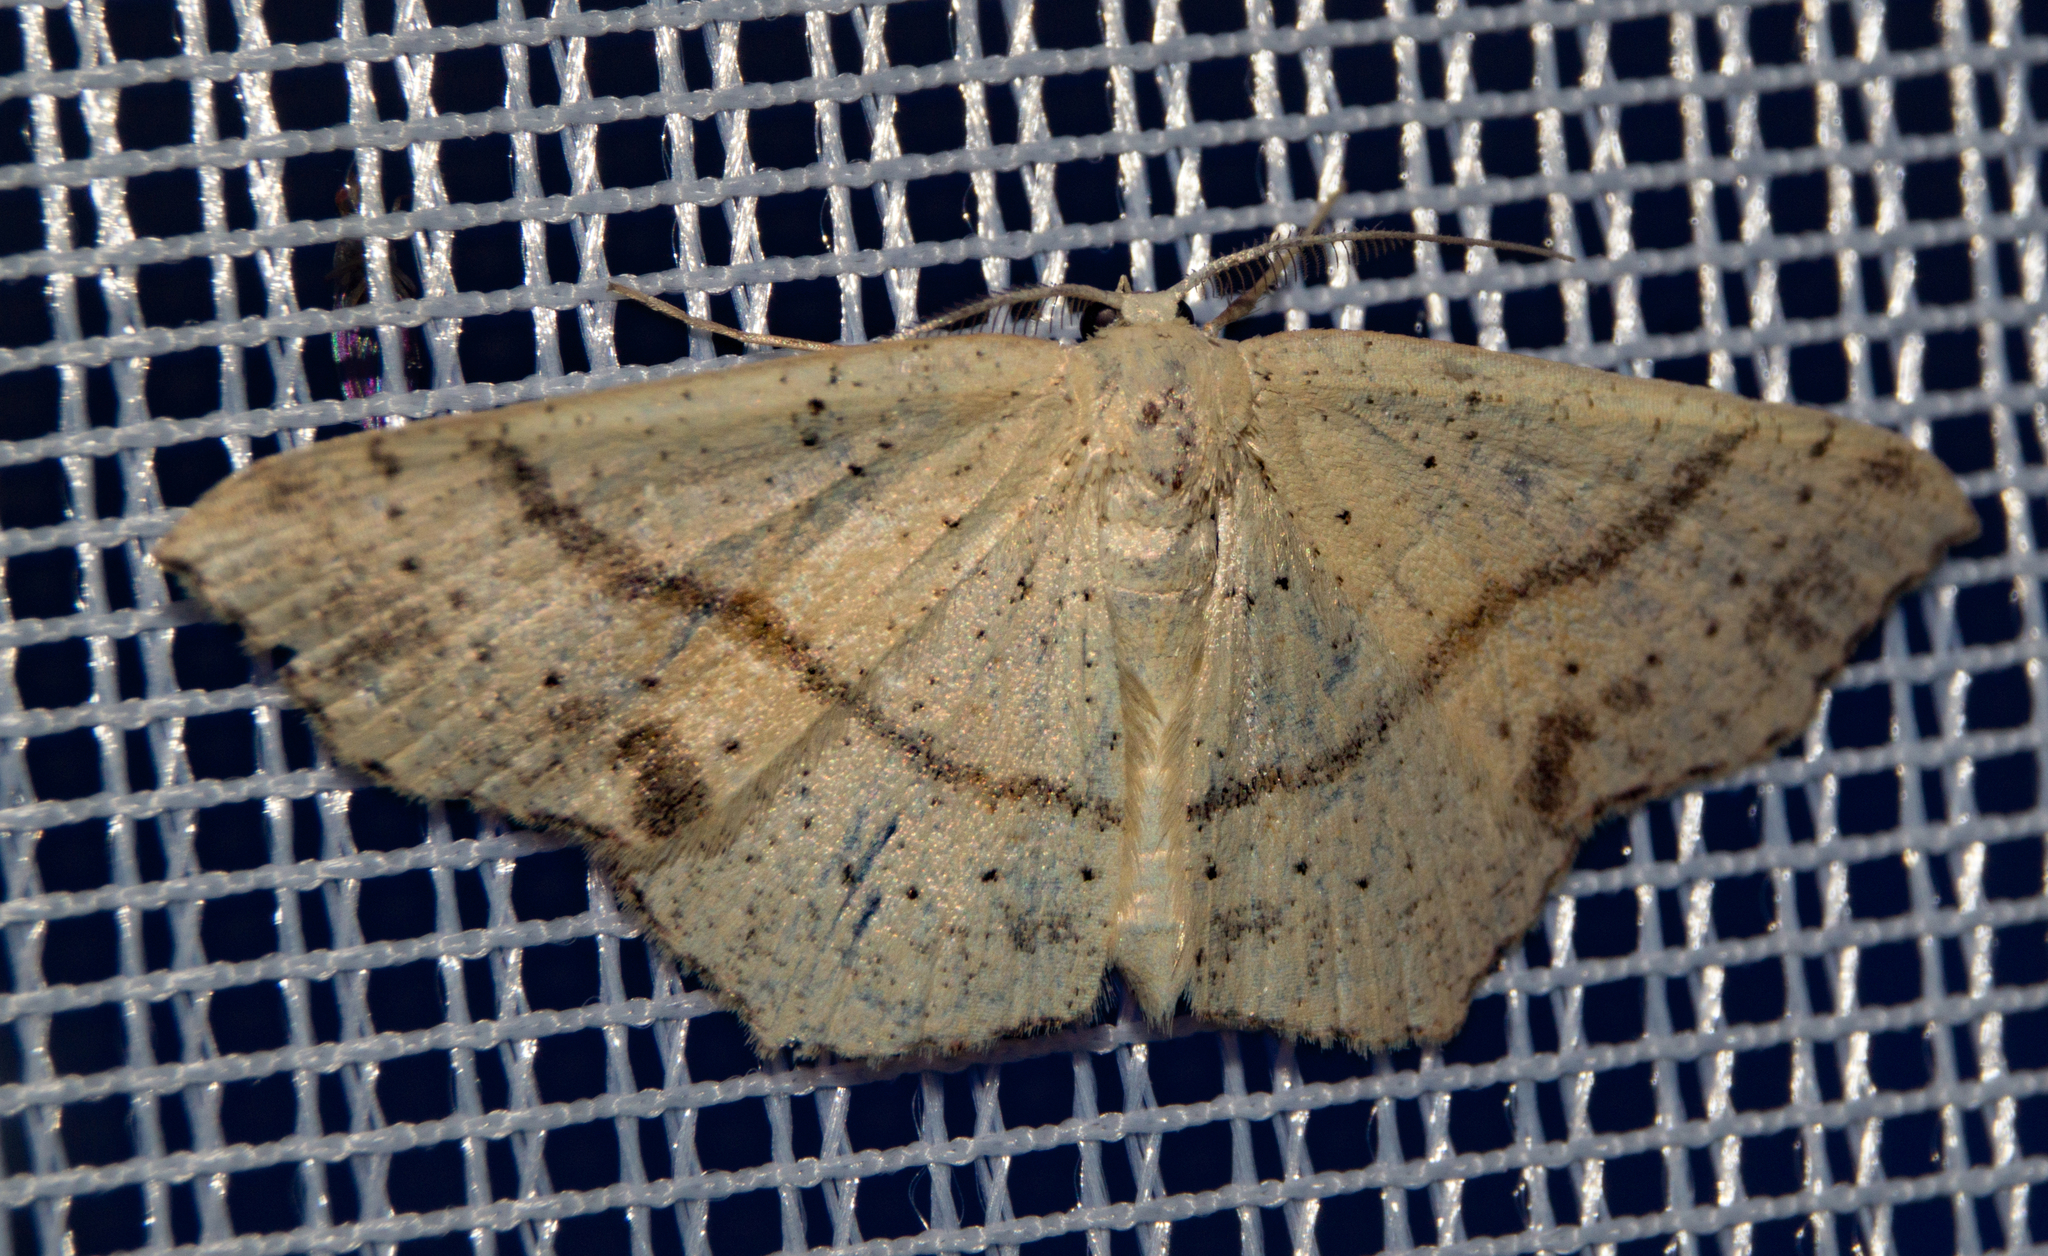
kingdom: Animalia
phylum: Arthropoda
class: Insecta
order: Lepidoptera
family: Geometridae
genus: Cyclophora
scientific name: Cyclophora punctaria
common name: Maiden's blush
